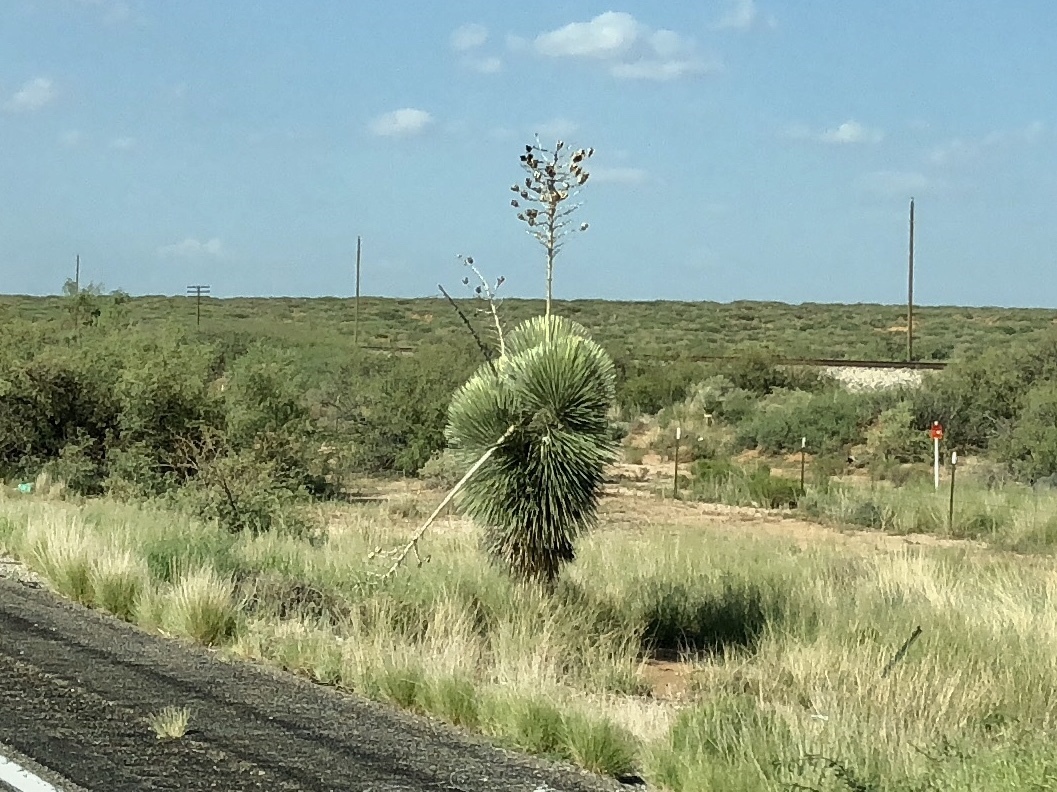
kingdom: Plantae
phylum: Tracheophyta
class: Liliopsida
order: Asparagales
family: Asparagaceae
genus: Yucca
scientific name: Yucca elata
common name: Palmella
